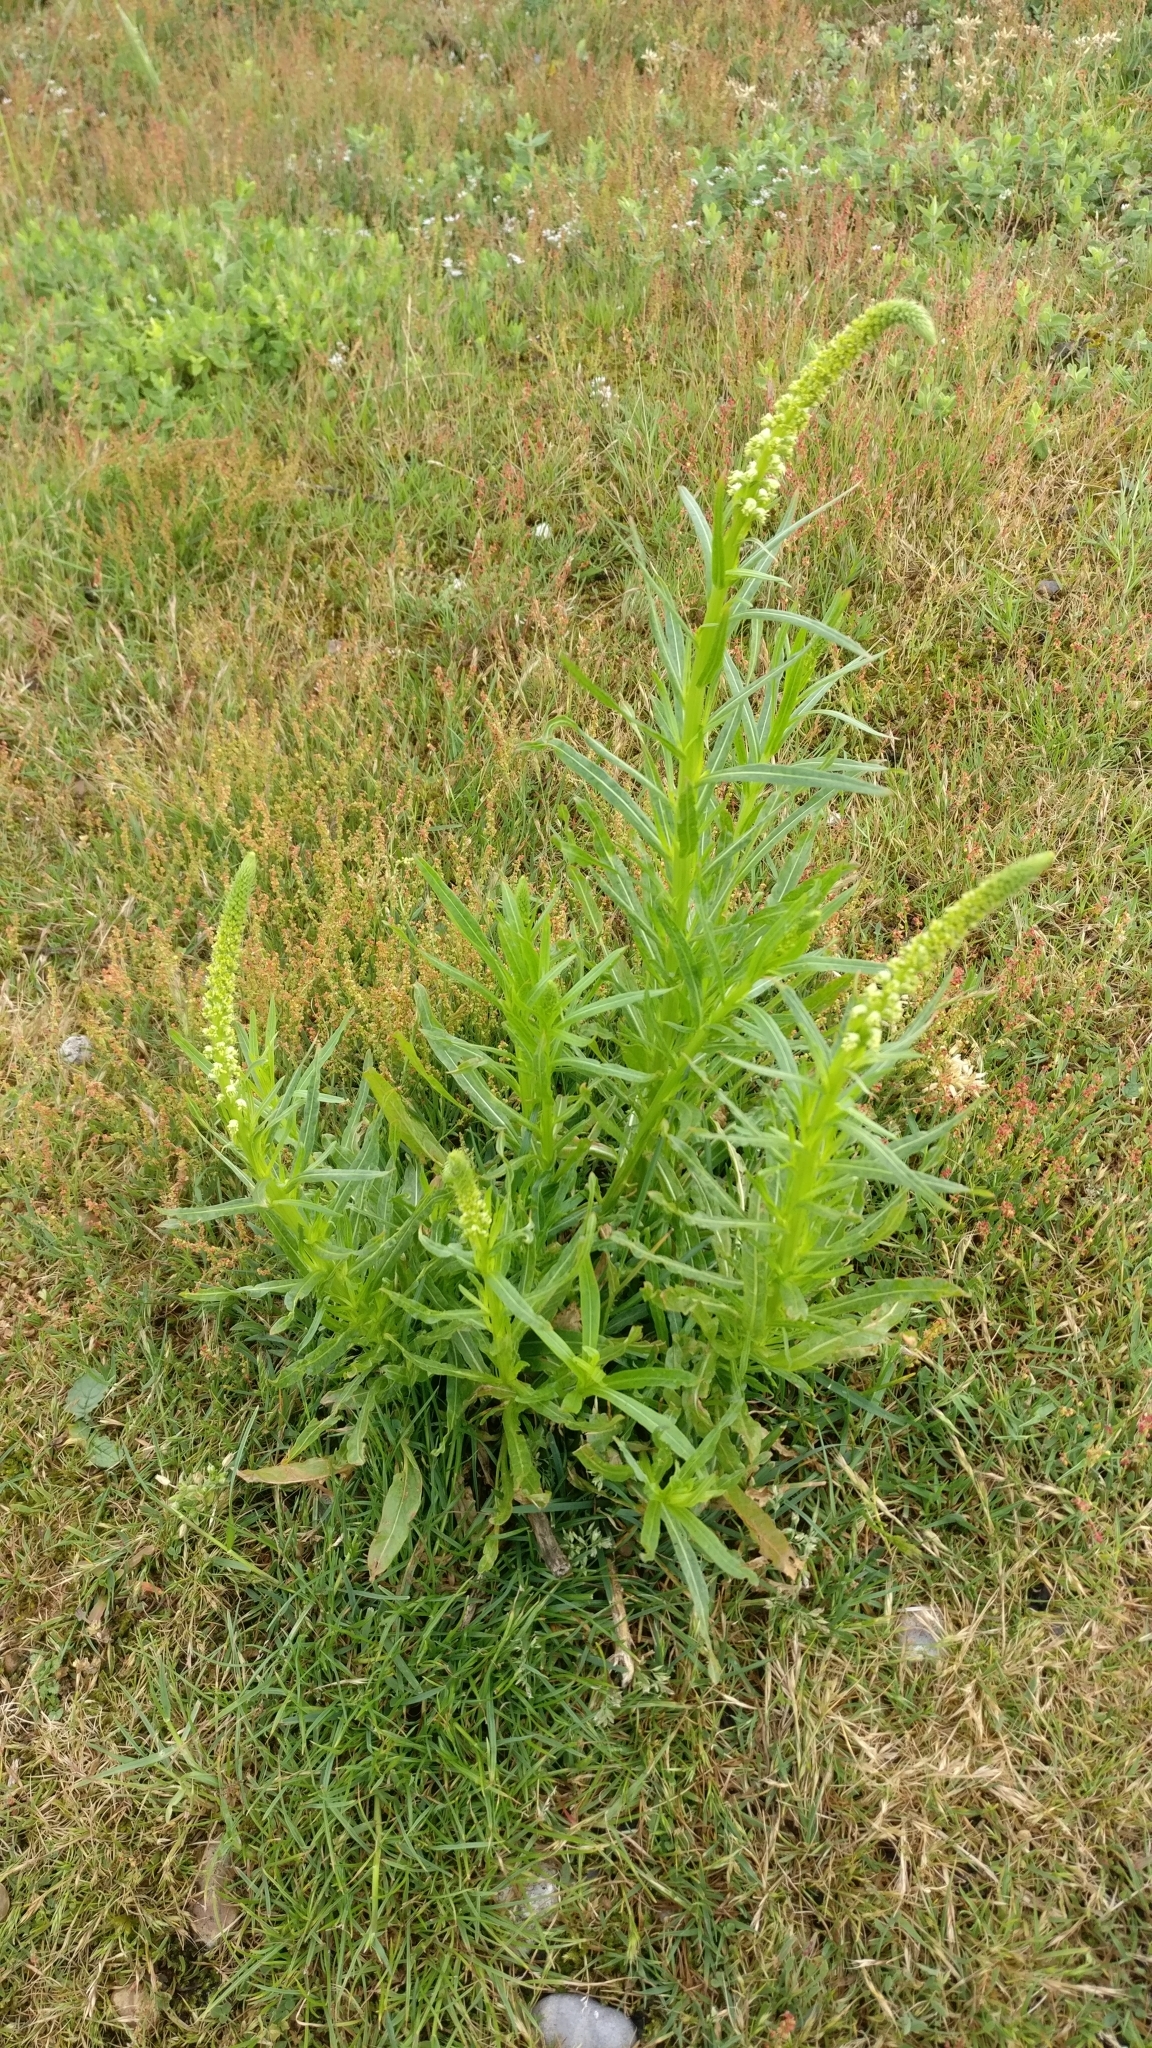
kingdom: Plantae
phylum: Tracheophyta
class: Magnoliopsida
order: Brassicales
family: Resedaceae
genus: Reseda
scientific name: Reseda luteola
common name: Weld
